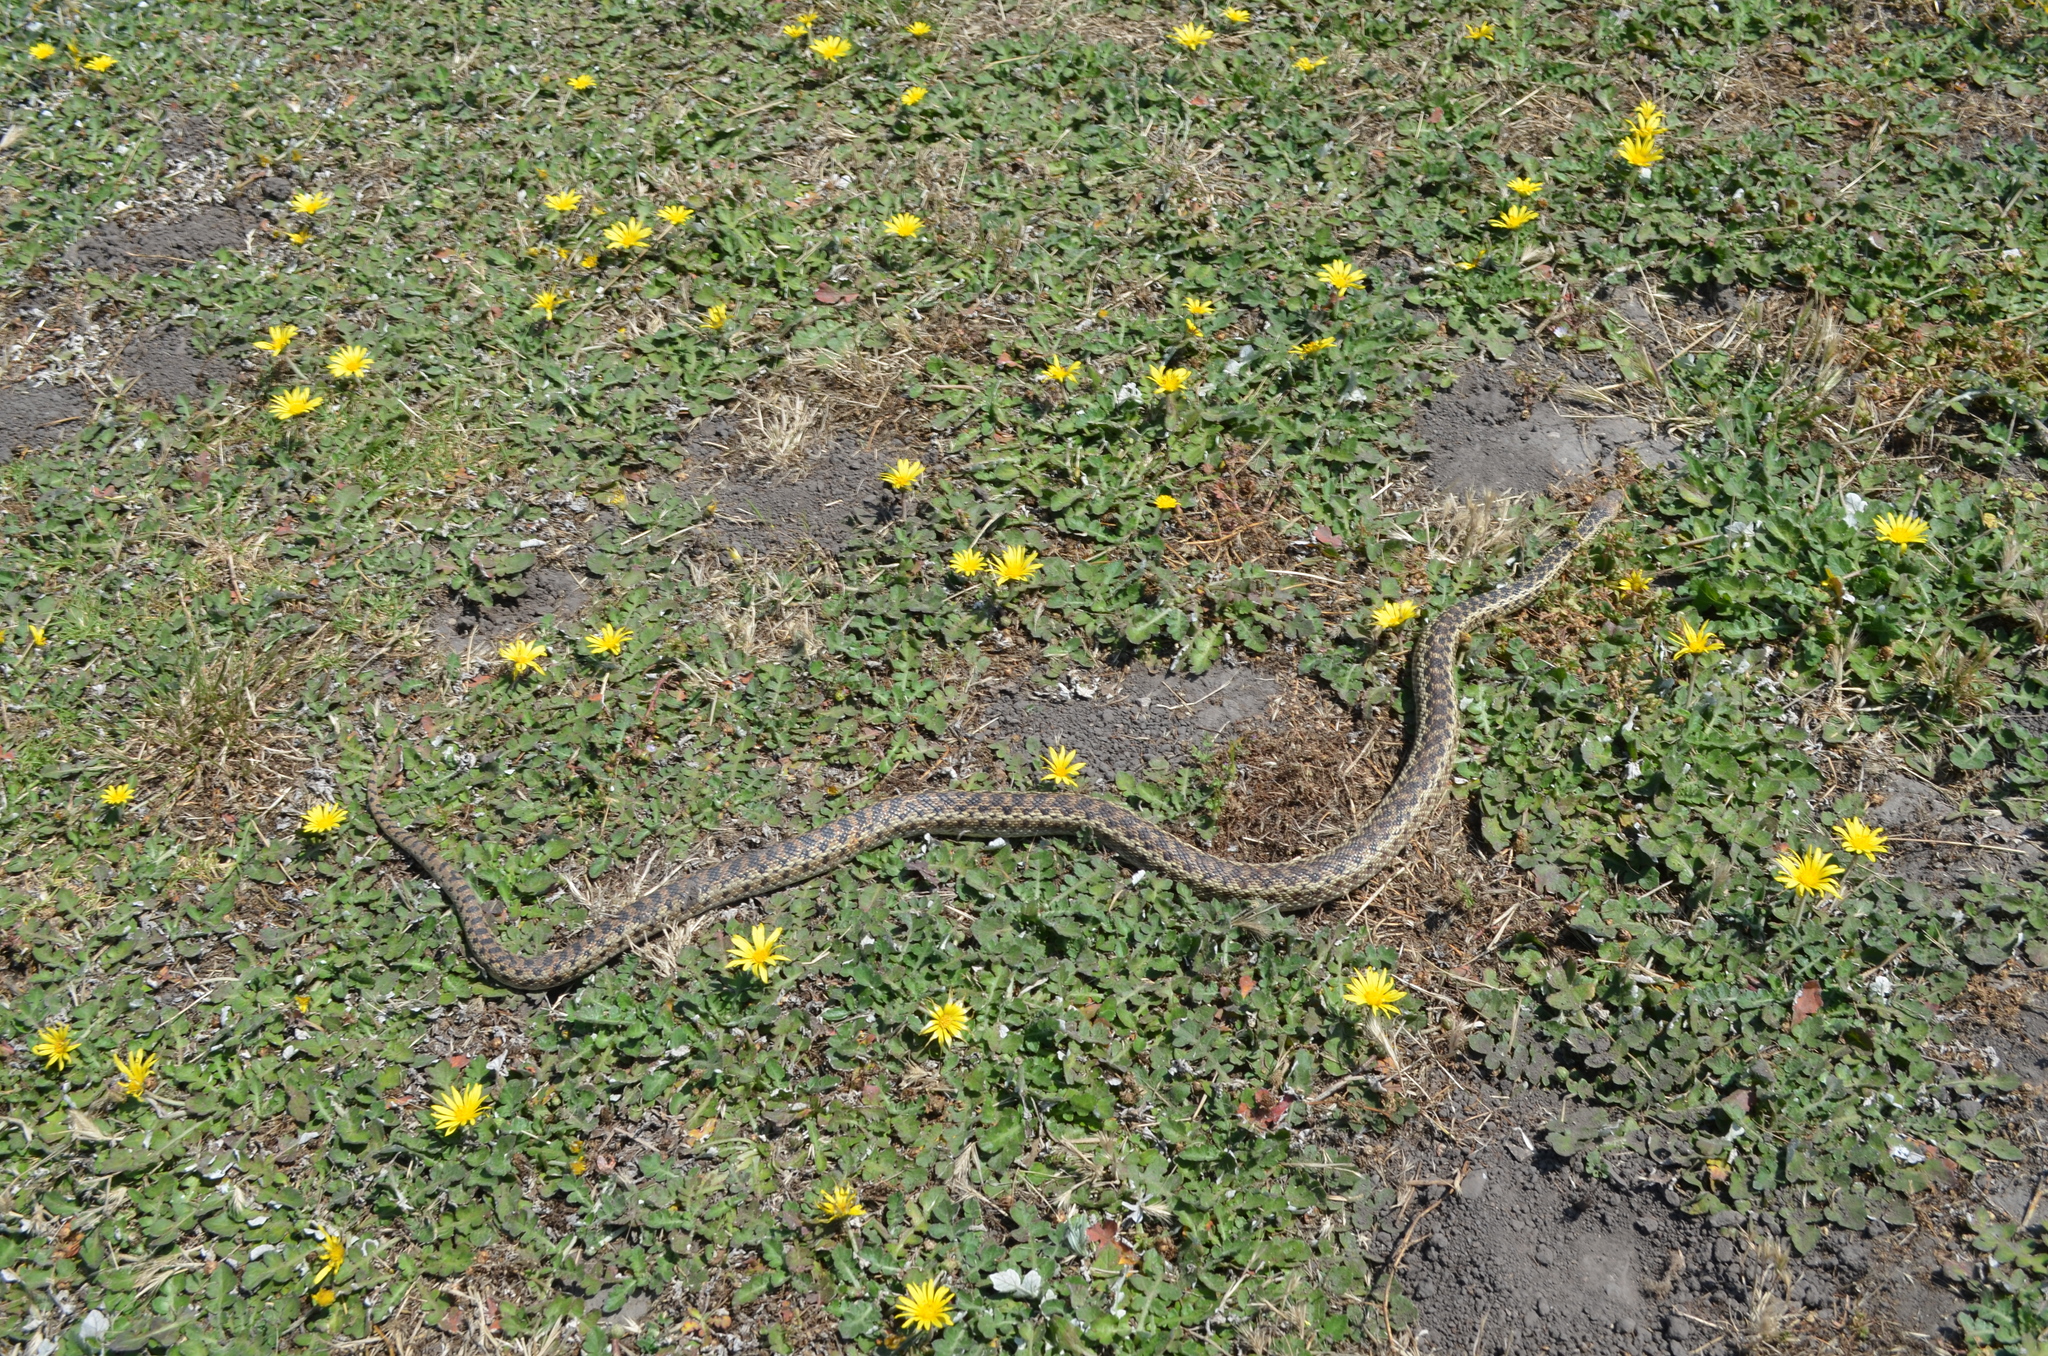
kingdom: Animalia
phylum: Chordata
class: Squamata
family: Colubridae
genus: Pituophis
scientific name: Pituophis catenifer
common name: Gopher snake
